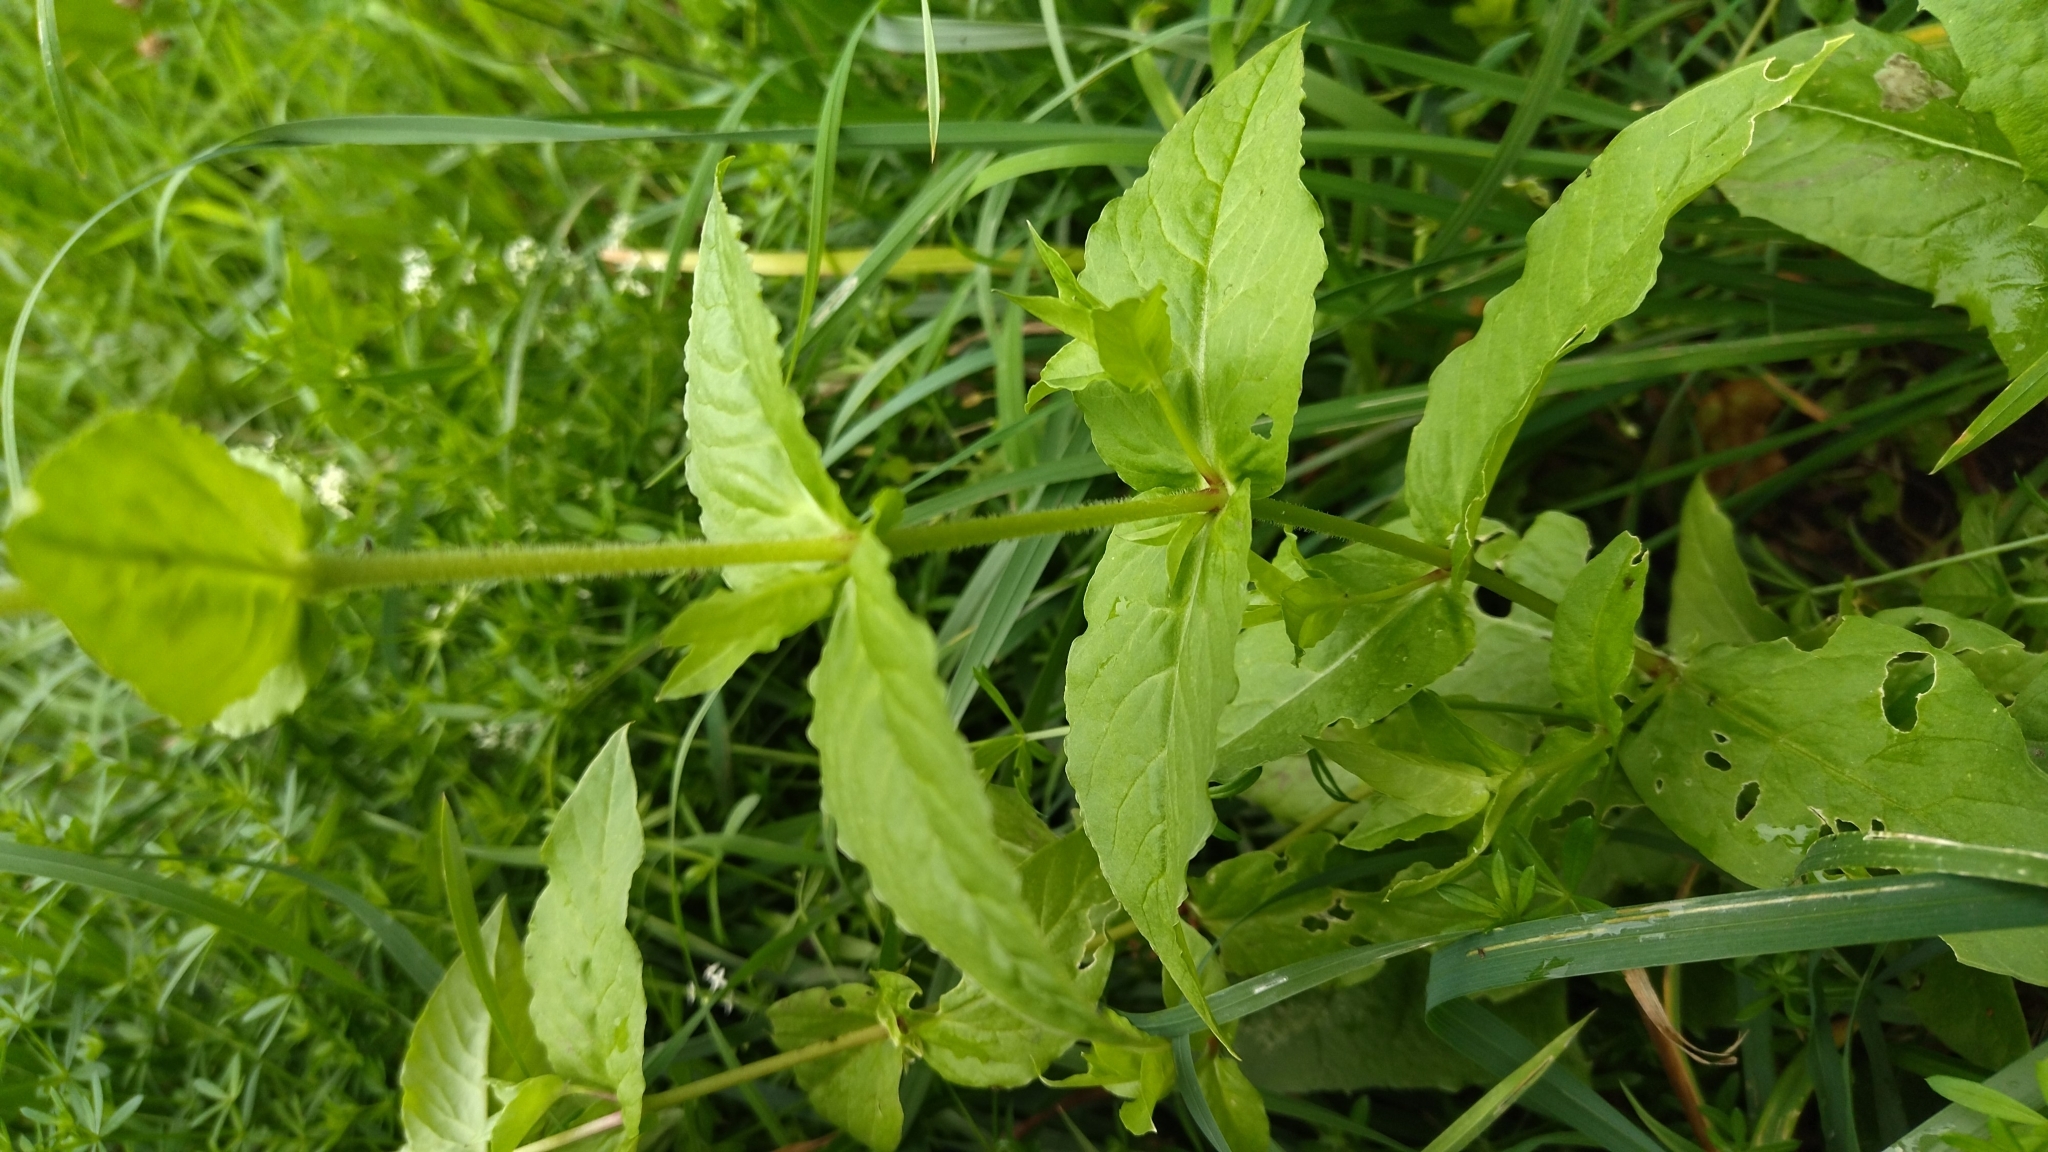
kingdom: Plantae
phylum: Tracheophyta
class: Magnoliopsida
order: Caryophyllales
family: Caryophyllaceae
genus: Stellaria
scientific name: Stellaria aquatica
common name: Water chickweed
